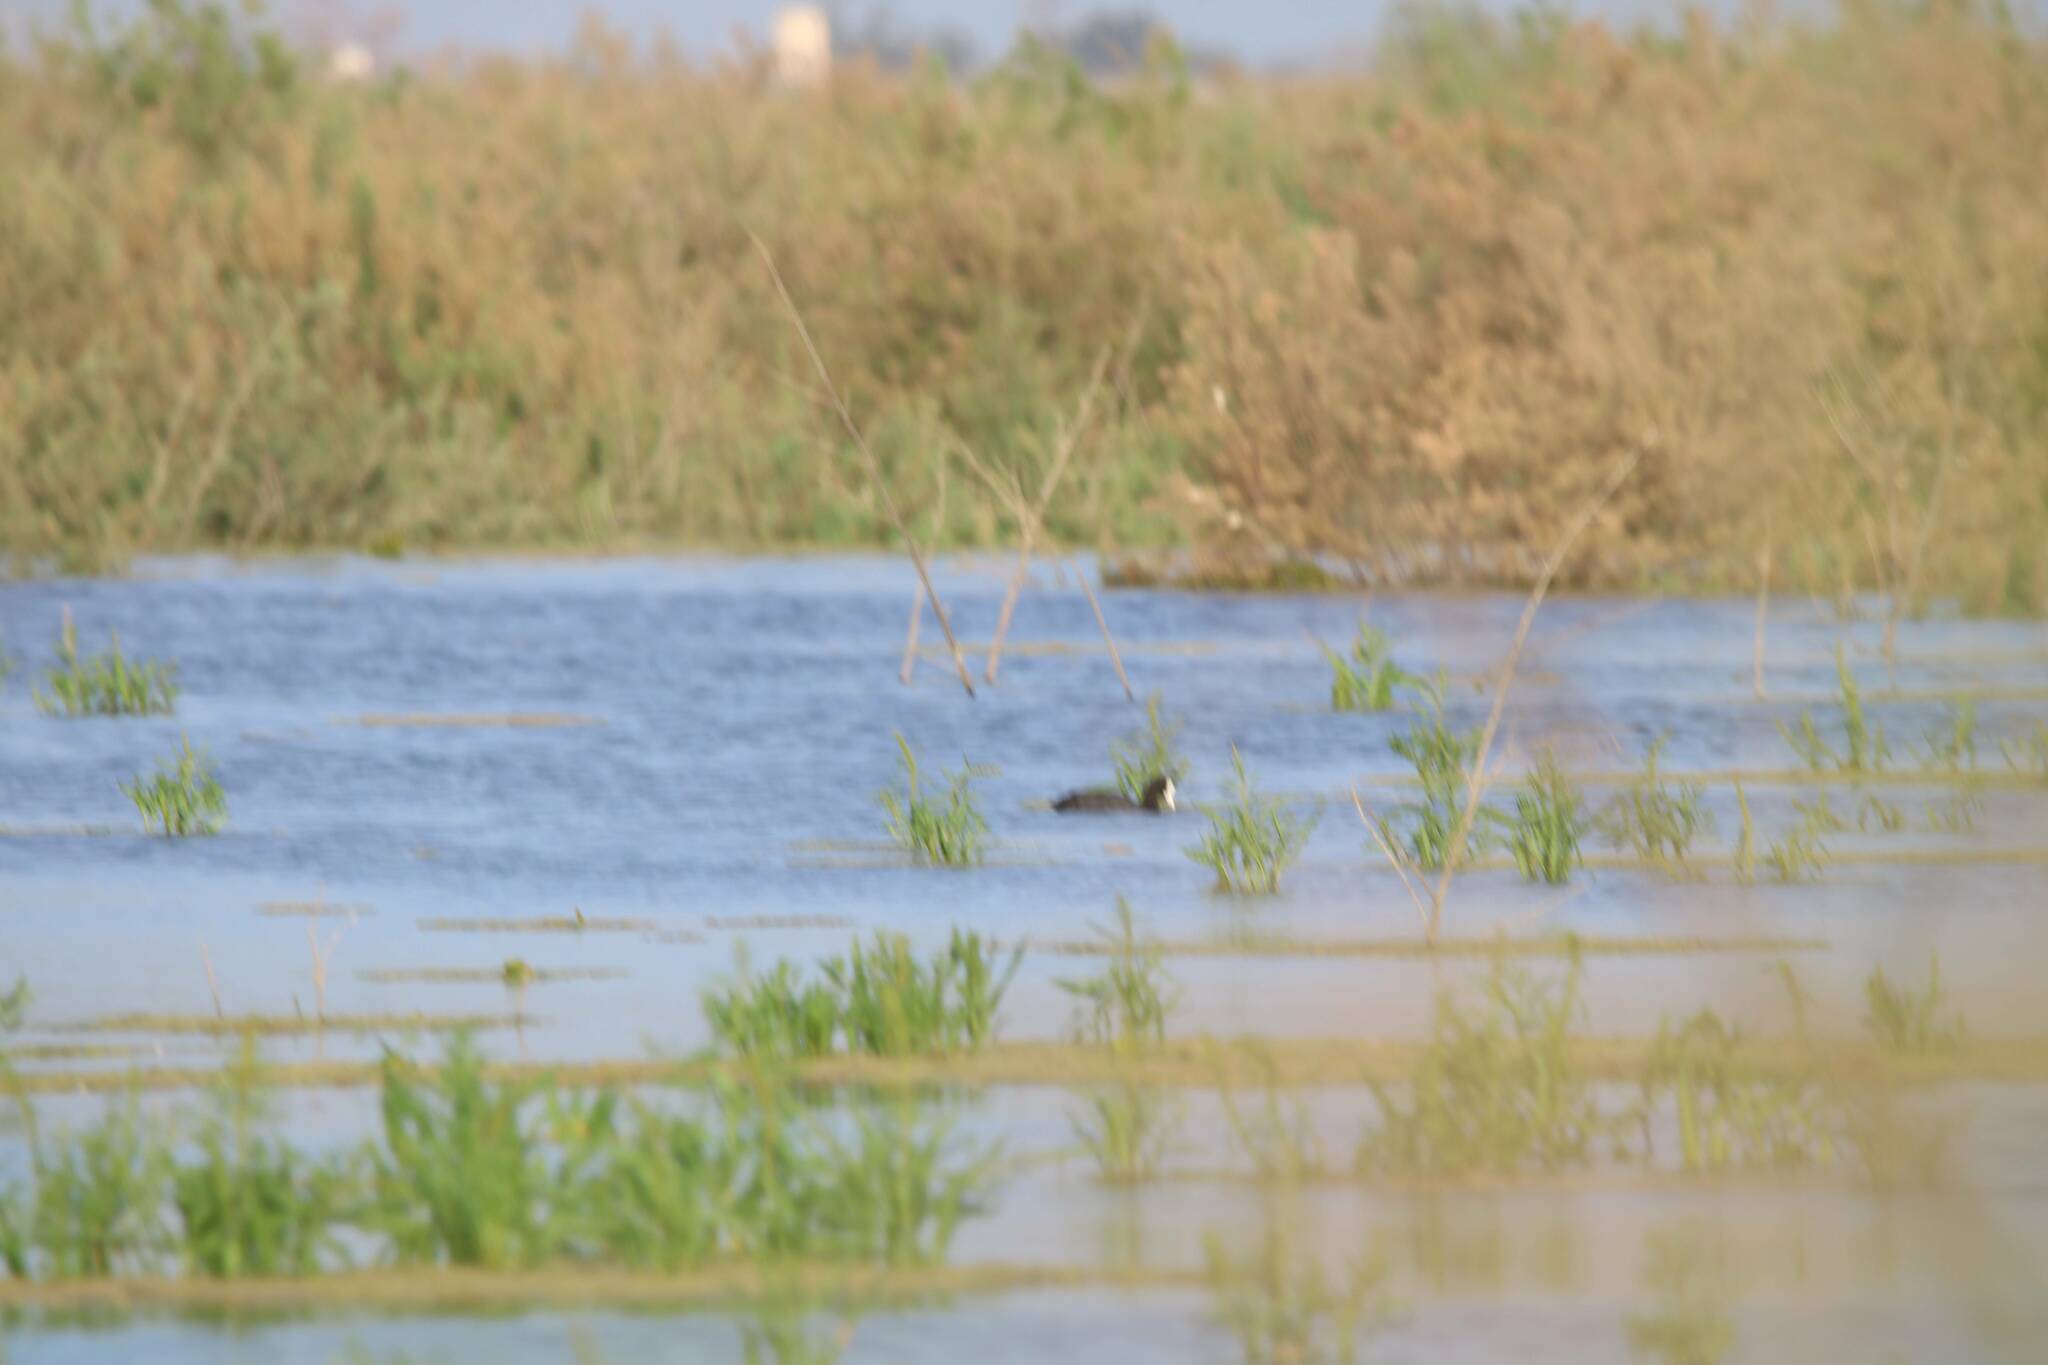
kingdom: Animalia
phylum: Chordata
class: Aves
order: Gruiformes
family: Rallidae
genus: Fulica
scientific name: Fulica atra
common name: Eurasian coot
